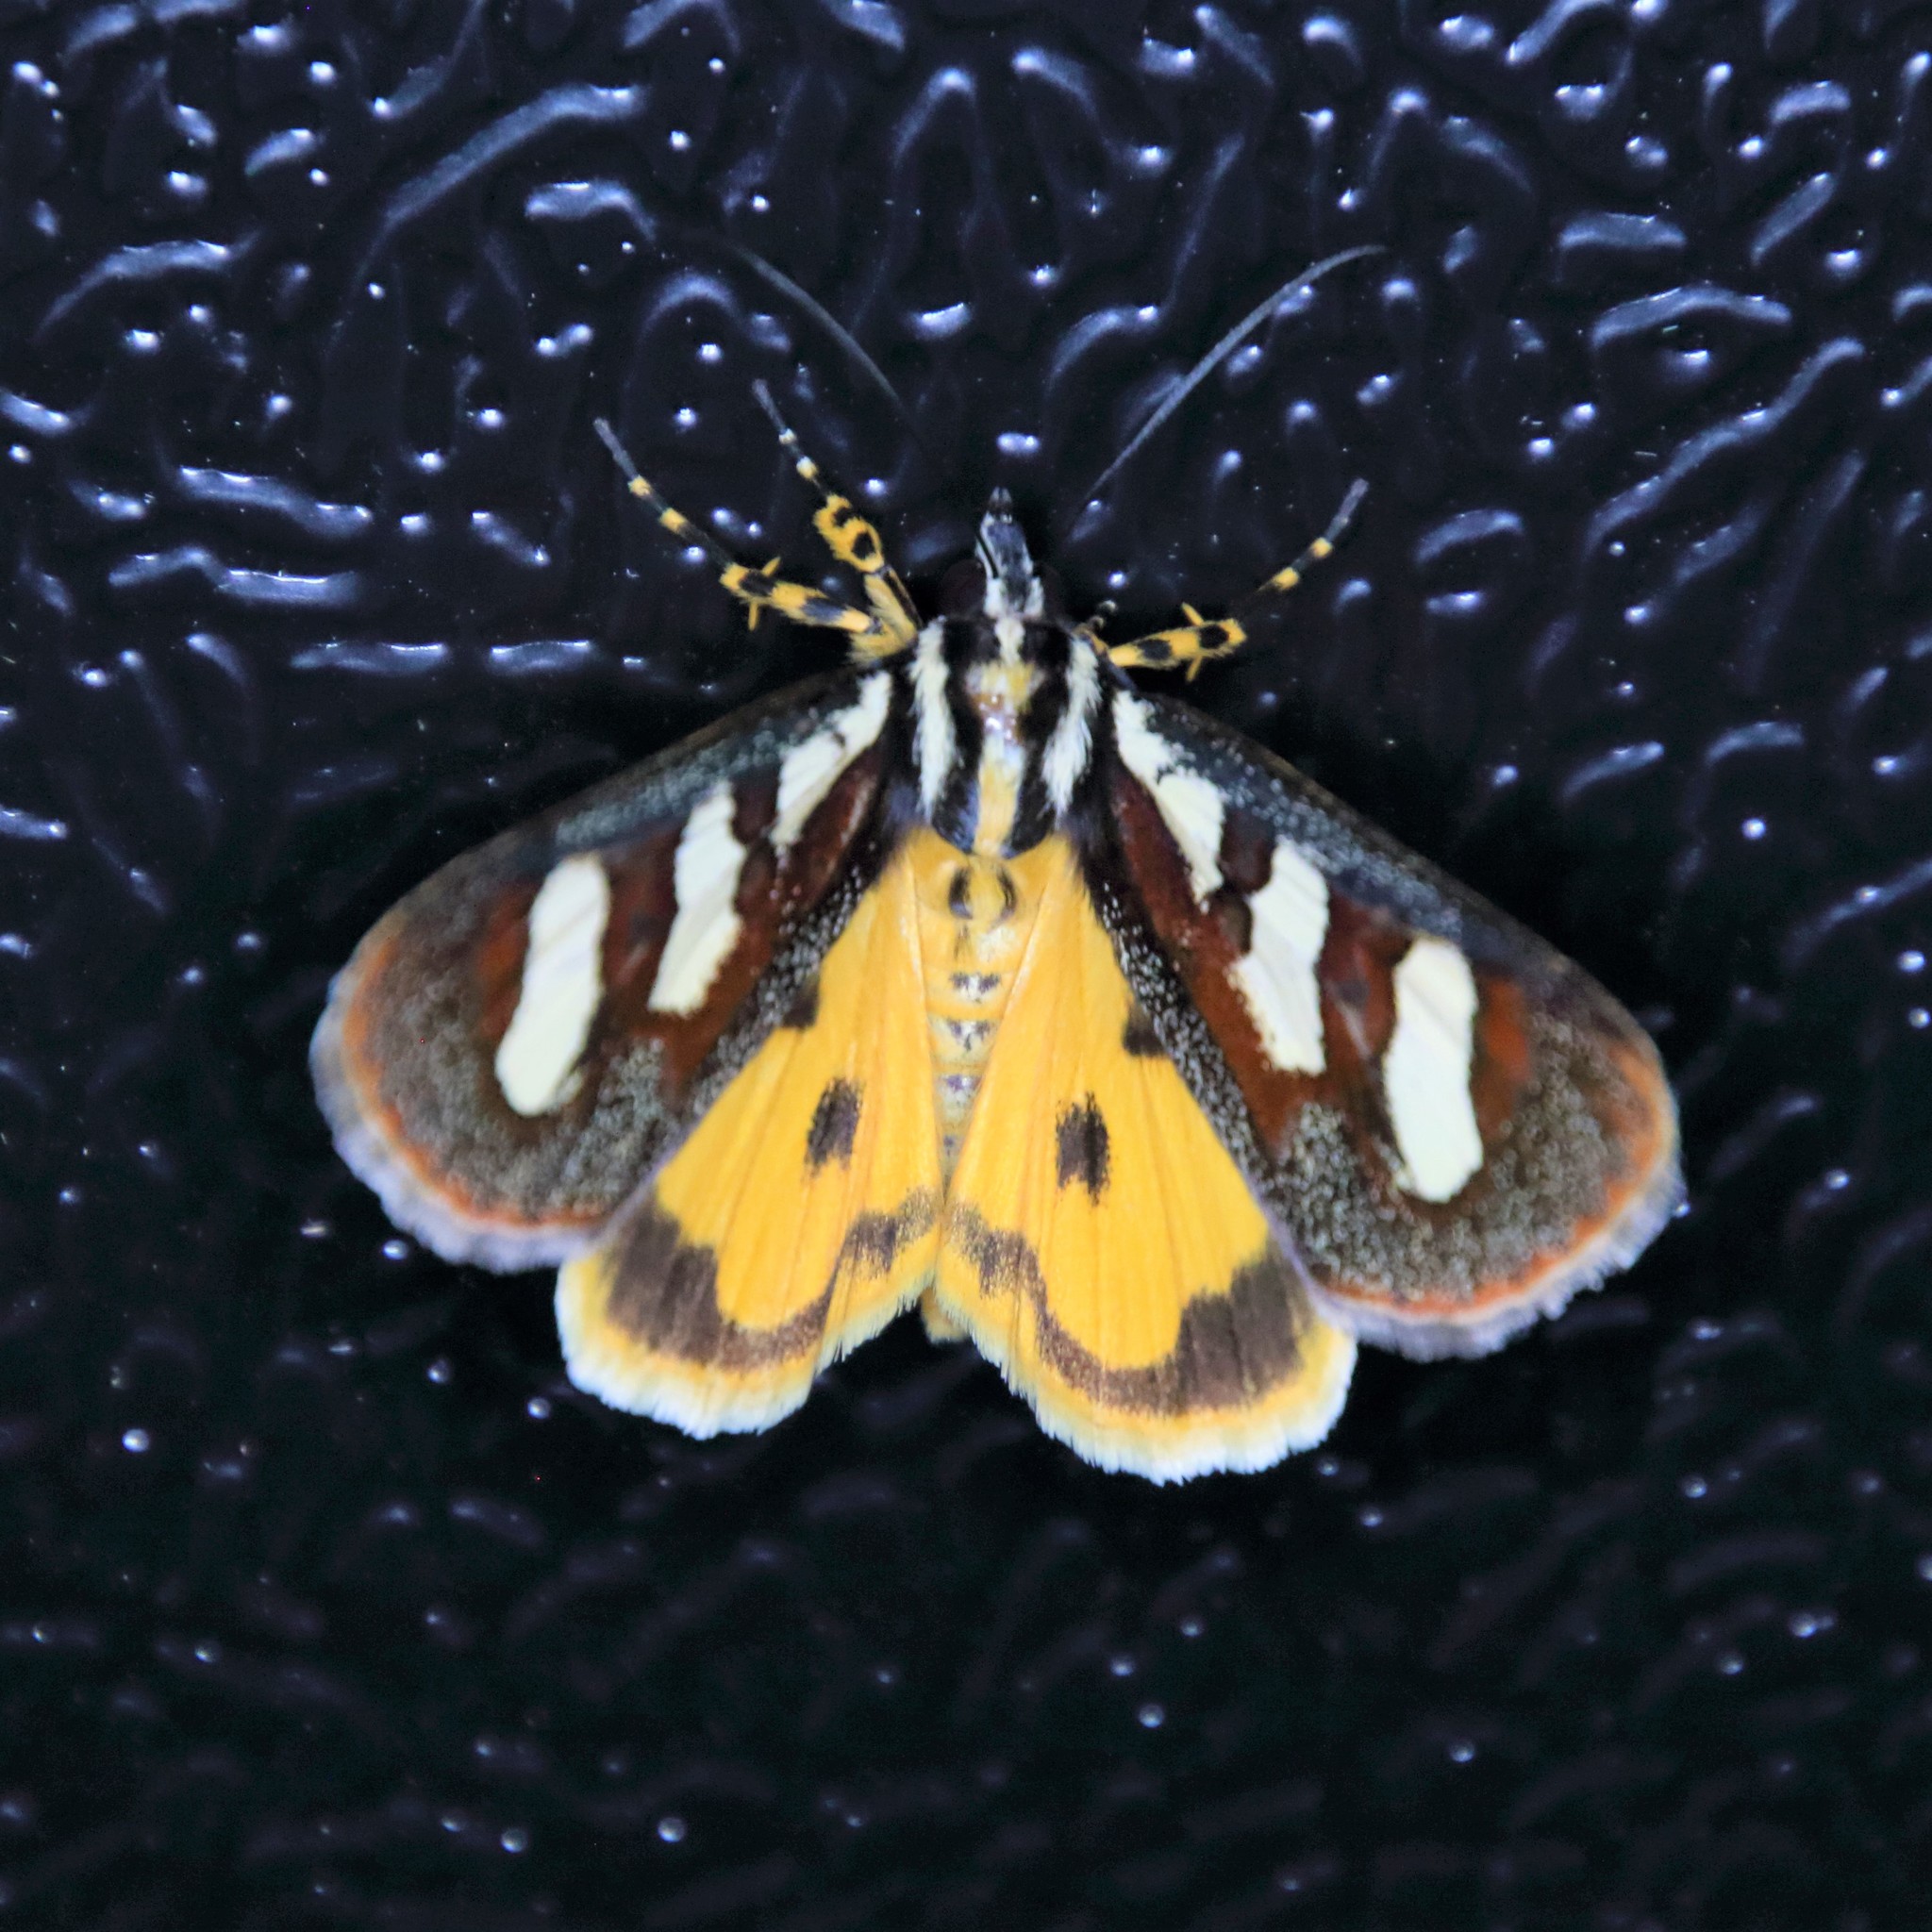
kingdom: Animalia
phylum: Arthropoda
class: Insecta
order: Lepidoptera
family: Noctuidae
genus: Aegocera
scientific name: Aegocera bimacula
